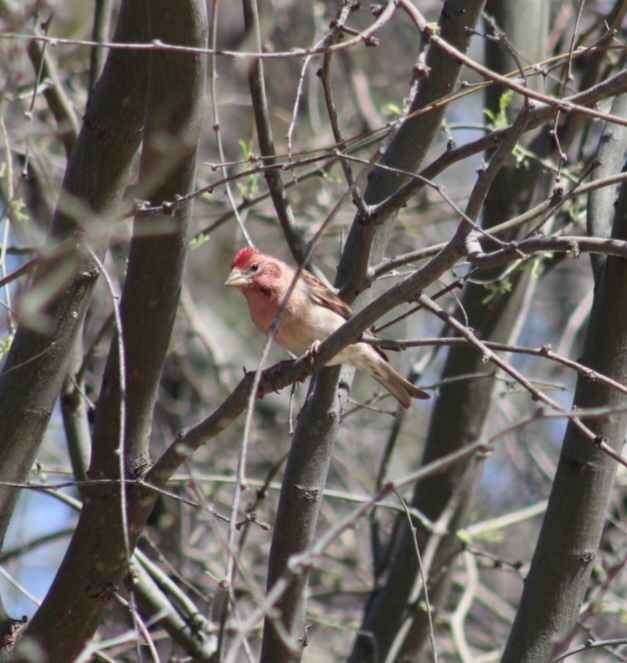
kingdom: Animalia
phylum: Chordata
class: Aves
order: Passeriformes
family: Fringillidae
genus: Haemorhous
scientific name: Haemorhous cassinii
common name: Cassin's finch
